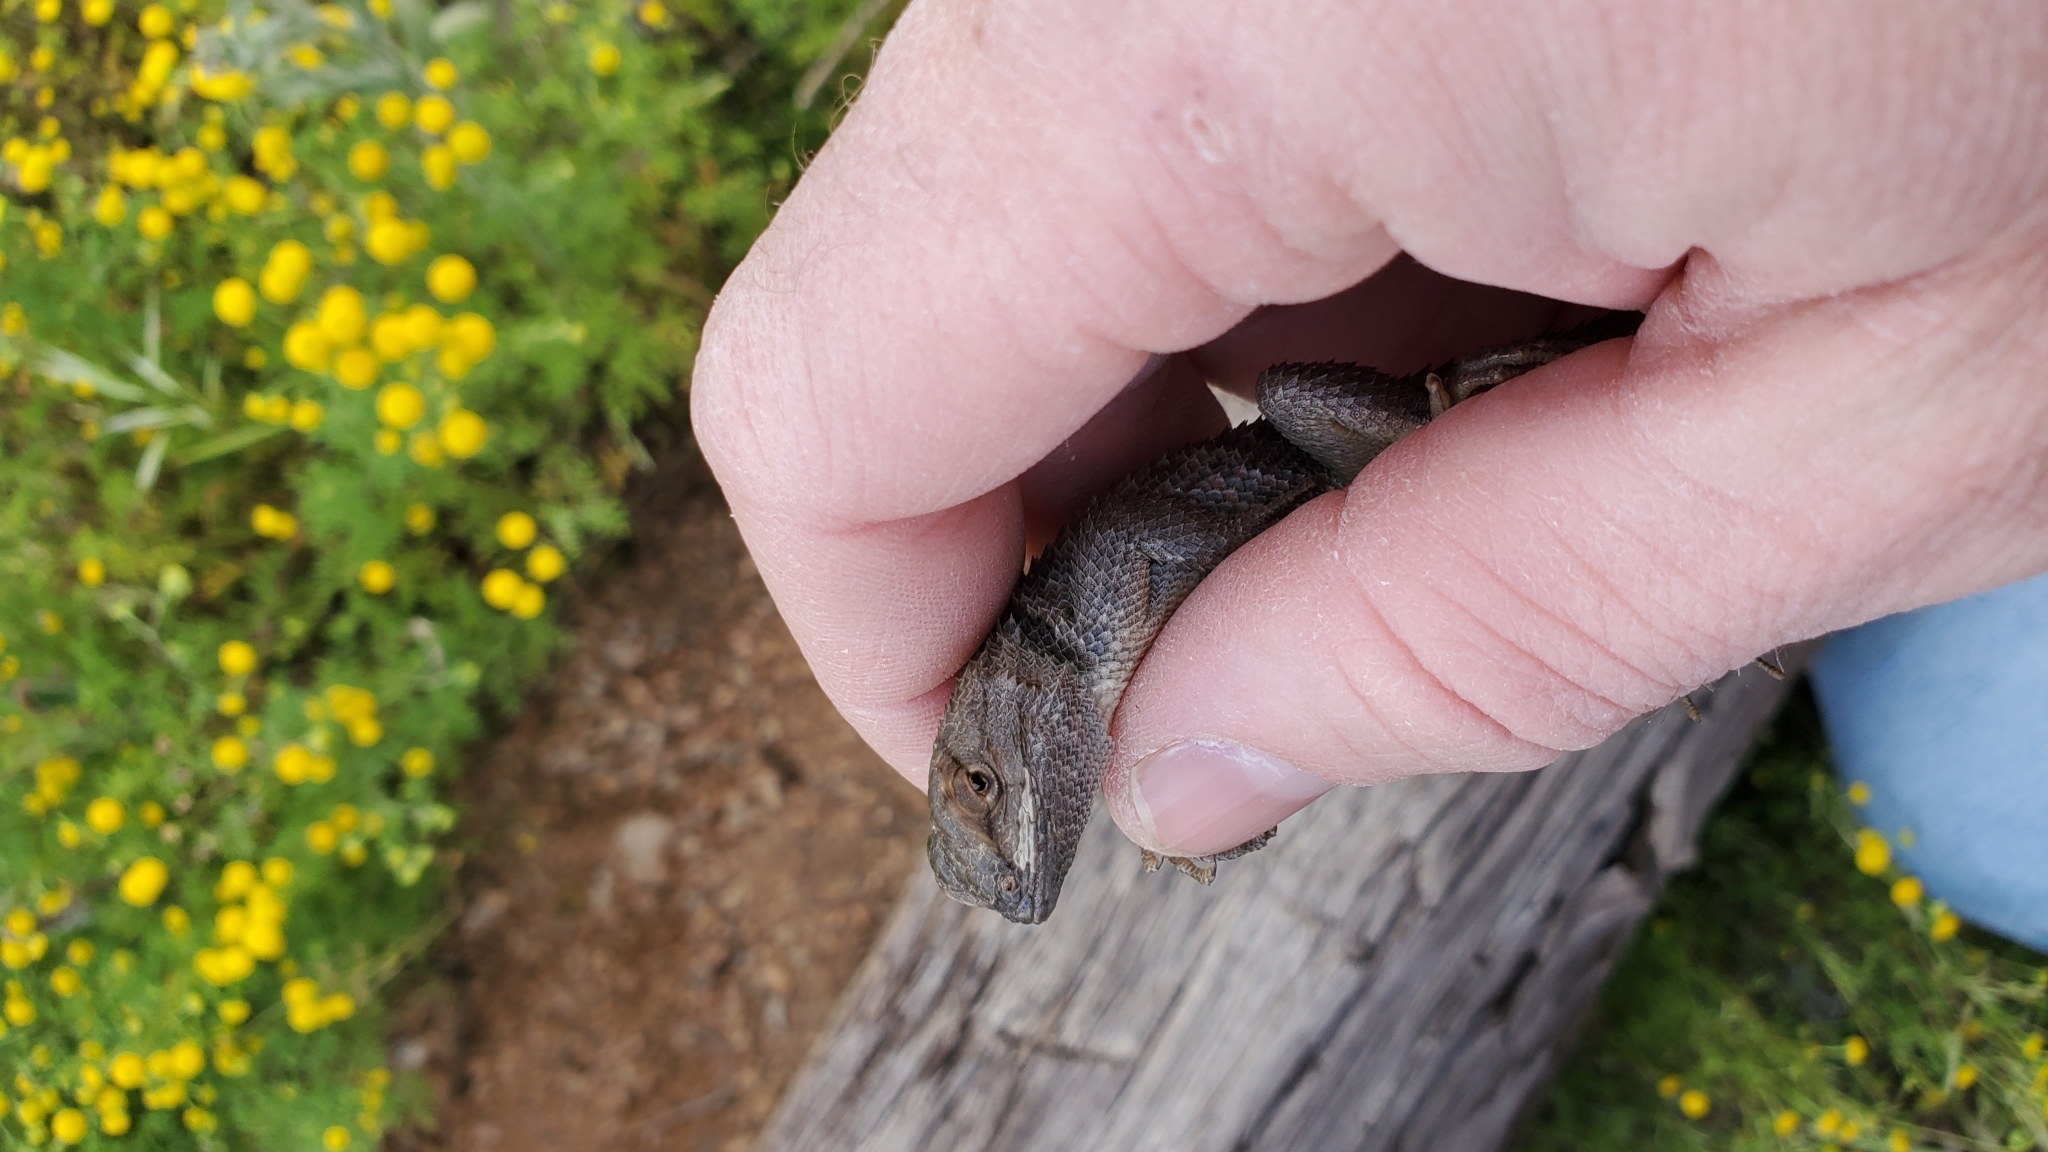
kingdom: Animalia
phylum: Chordata
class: Squamata
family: Phrynosomatidae
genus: Sceloporus
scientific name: Sceloporus magister
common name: Desert spiny lizard
